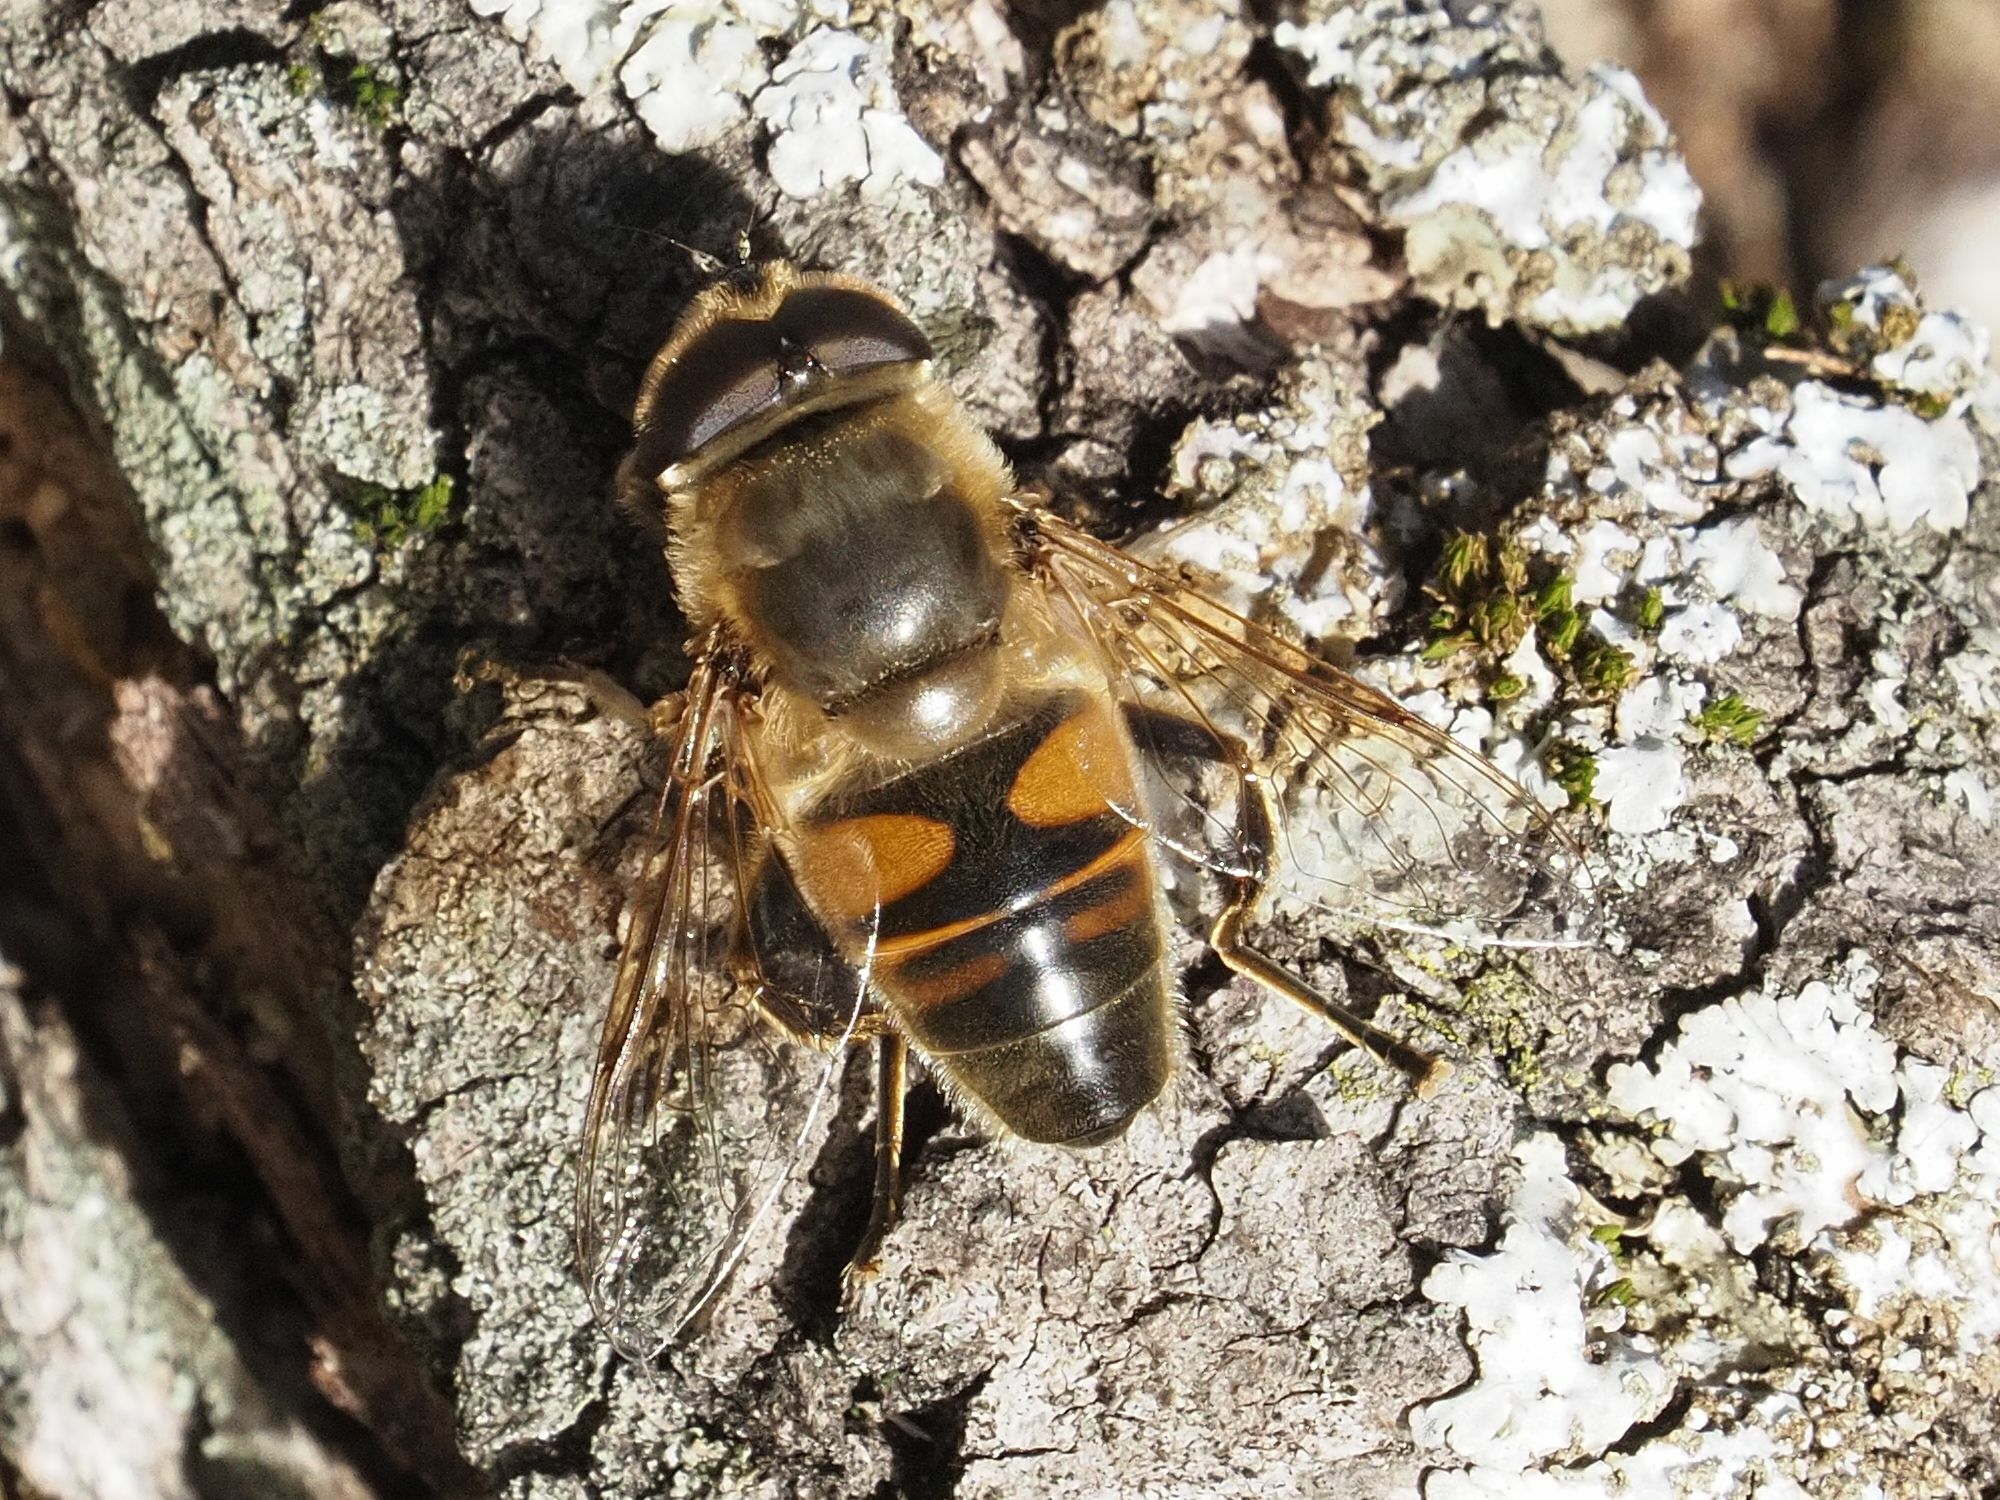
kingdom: Animalia
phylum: Arthropoda
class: Insecta
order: Diptera
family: Syrphidae
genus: Eristalis
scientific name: Eristalis tenax
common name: Drone fly
